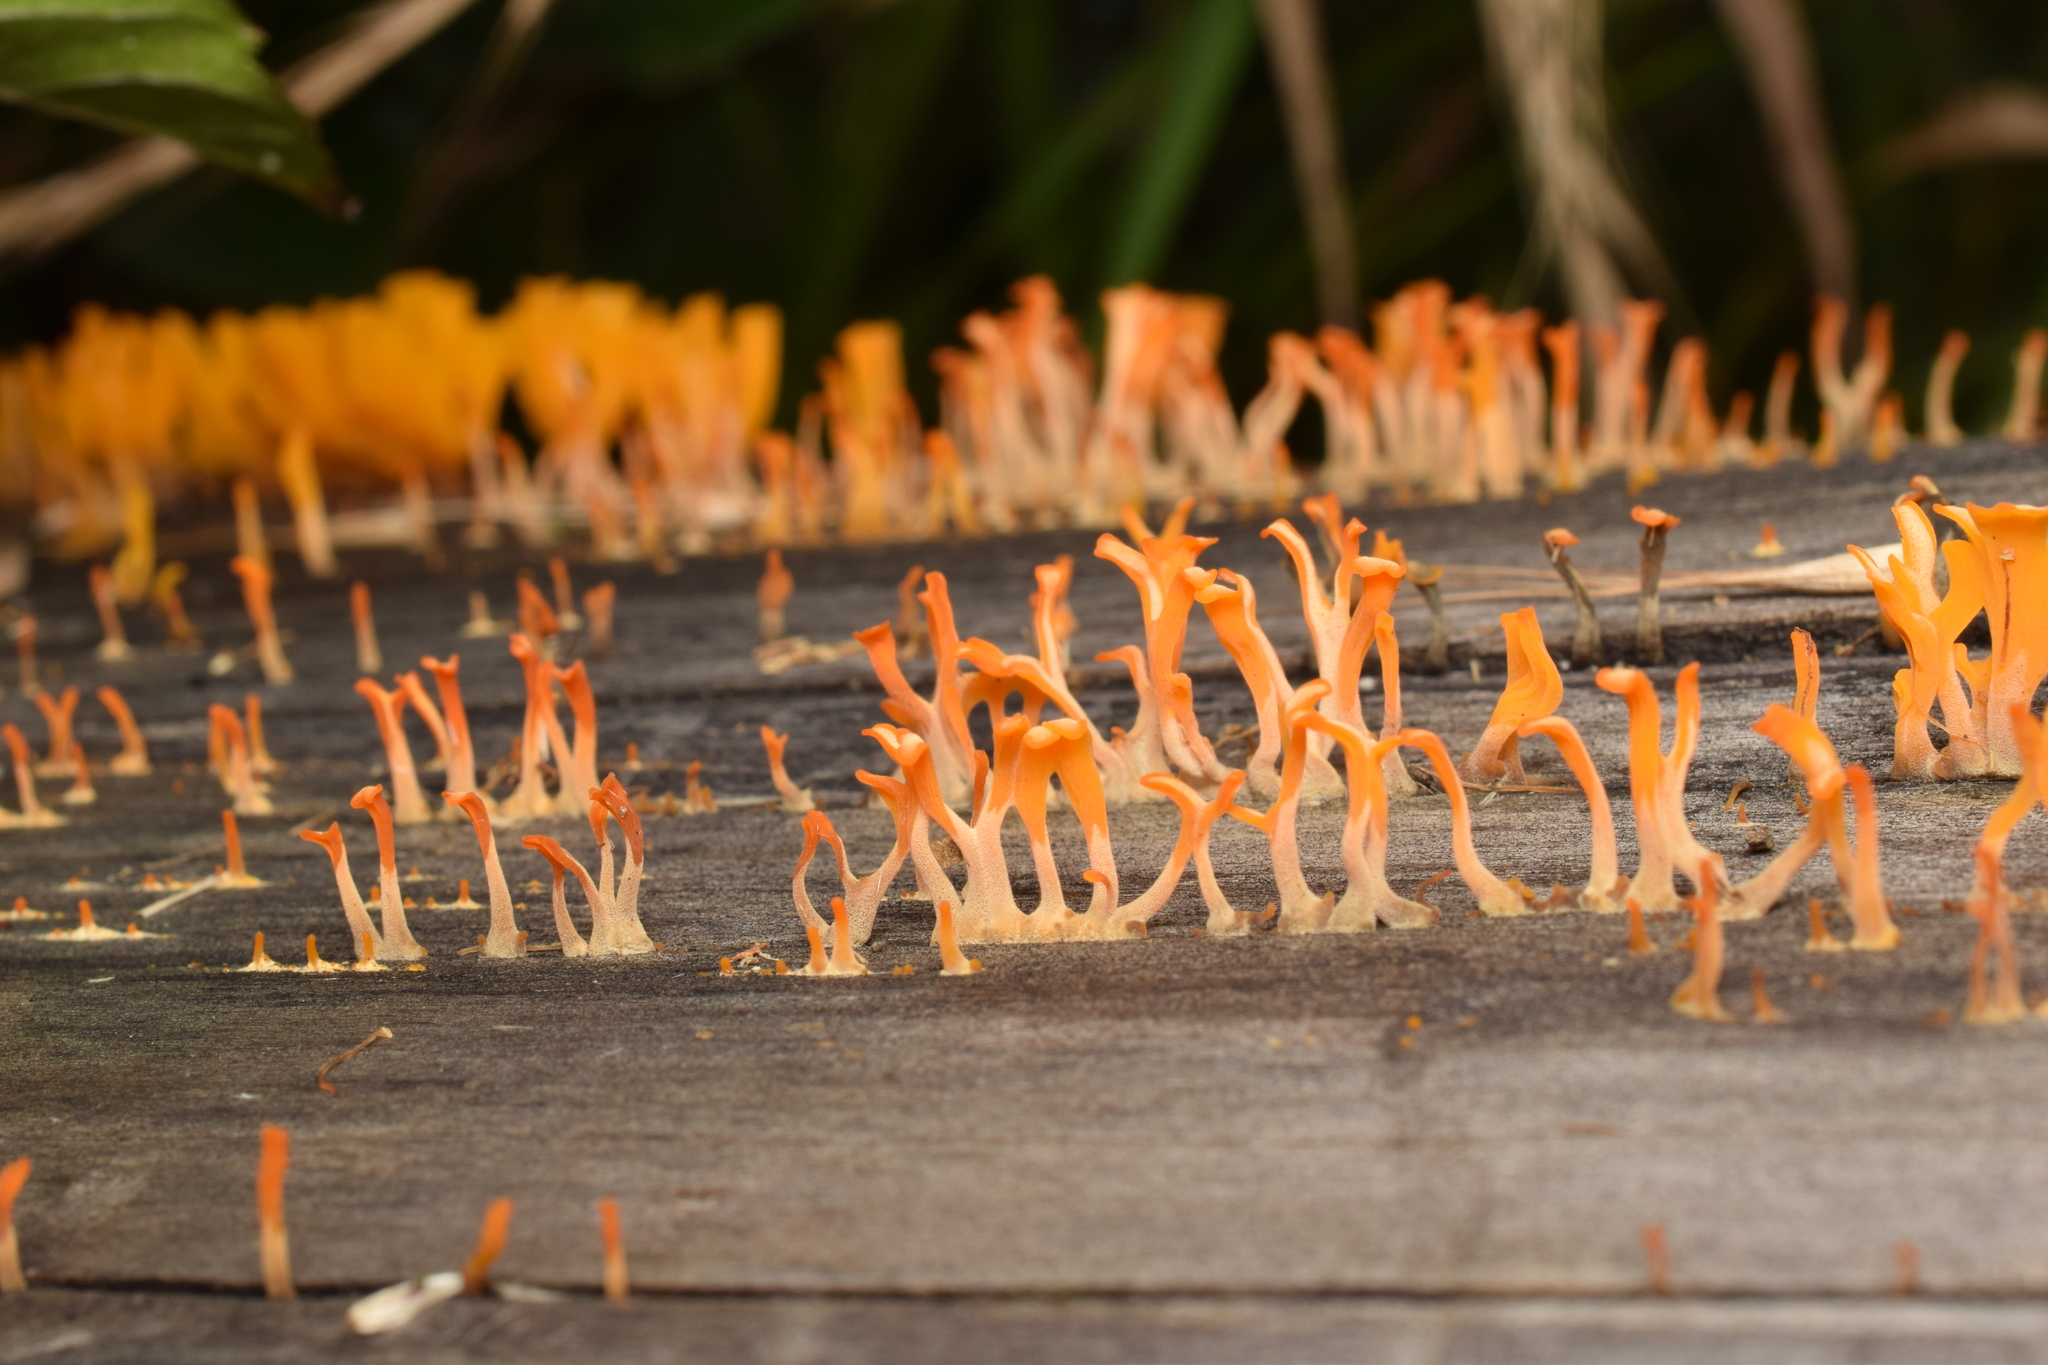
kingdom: Fungi
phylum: Basidiomycota
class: Dacrymycetes
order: Dacrymycetales
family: Dacrymycetaceae
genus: Dacrymyces
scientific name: Dacrymyces spathularius
